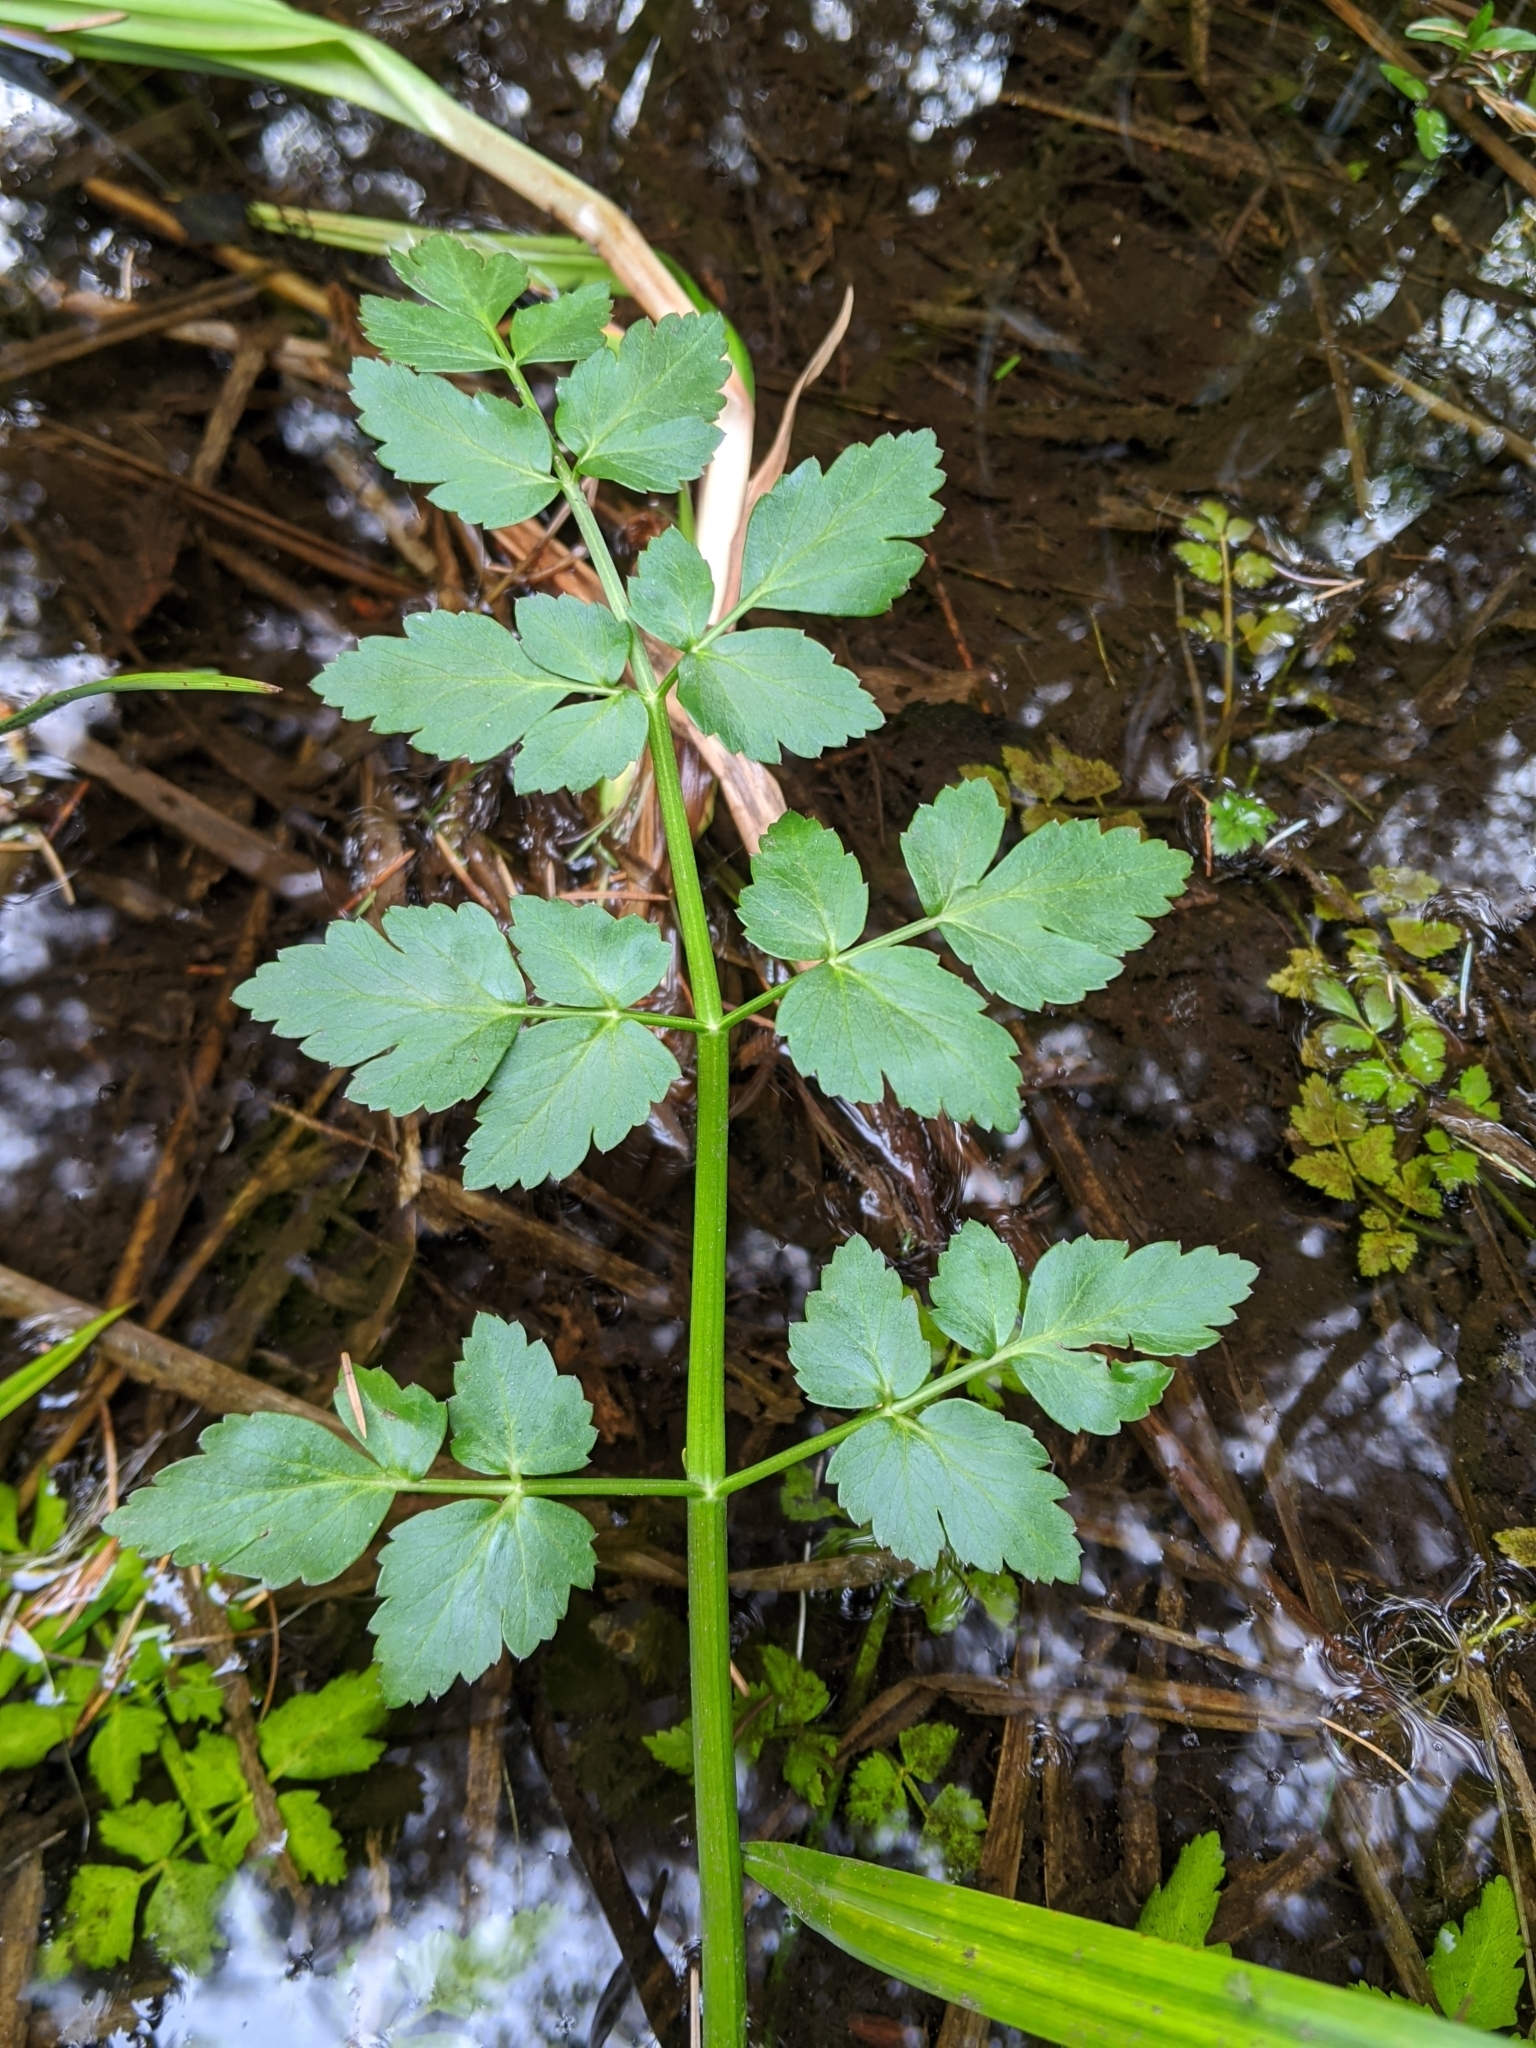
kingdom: Plantae
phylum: Tracheophyta
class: Magnoliopsida
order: Apiales
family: Apiaceae
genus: Oenanthe
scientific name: Oenanthe sarmentosa
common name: American water-parsley
